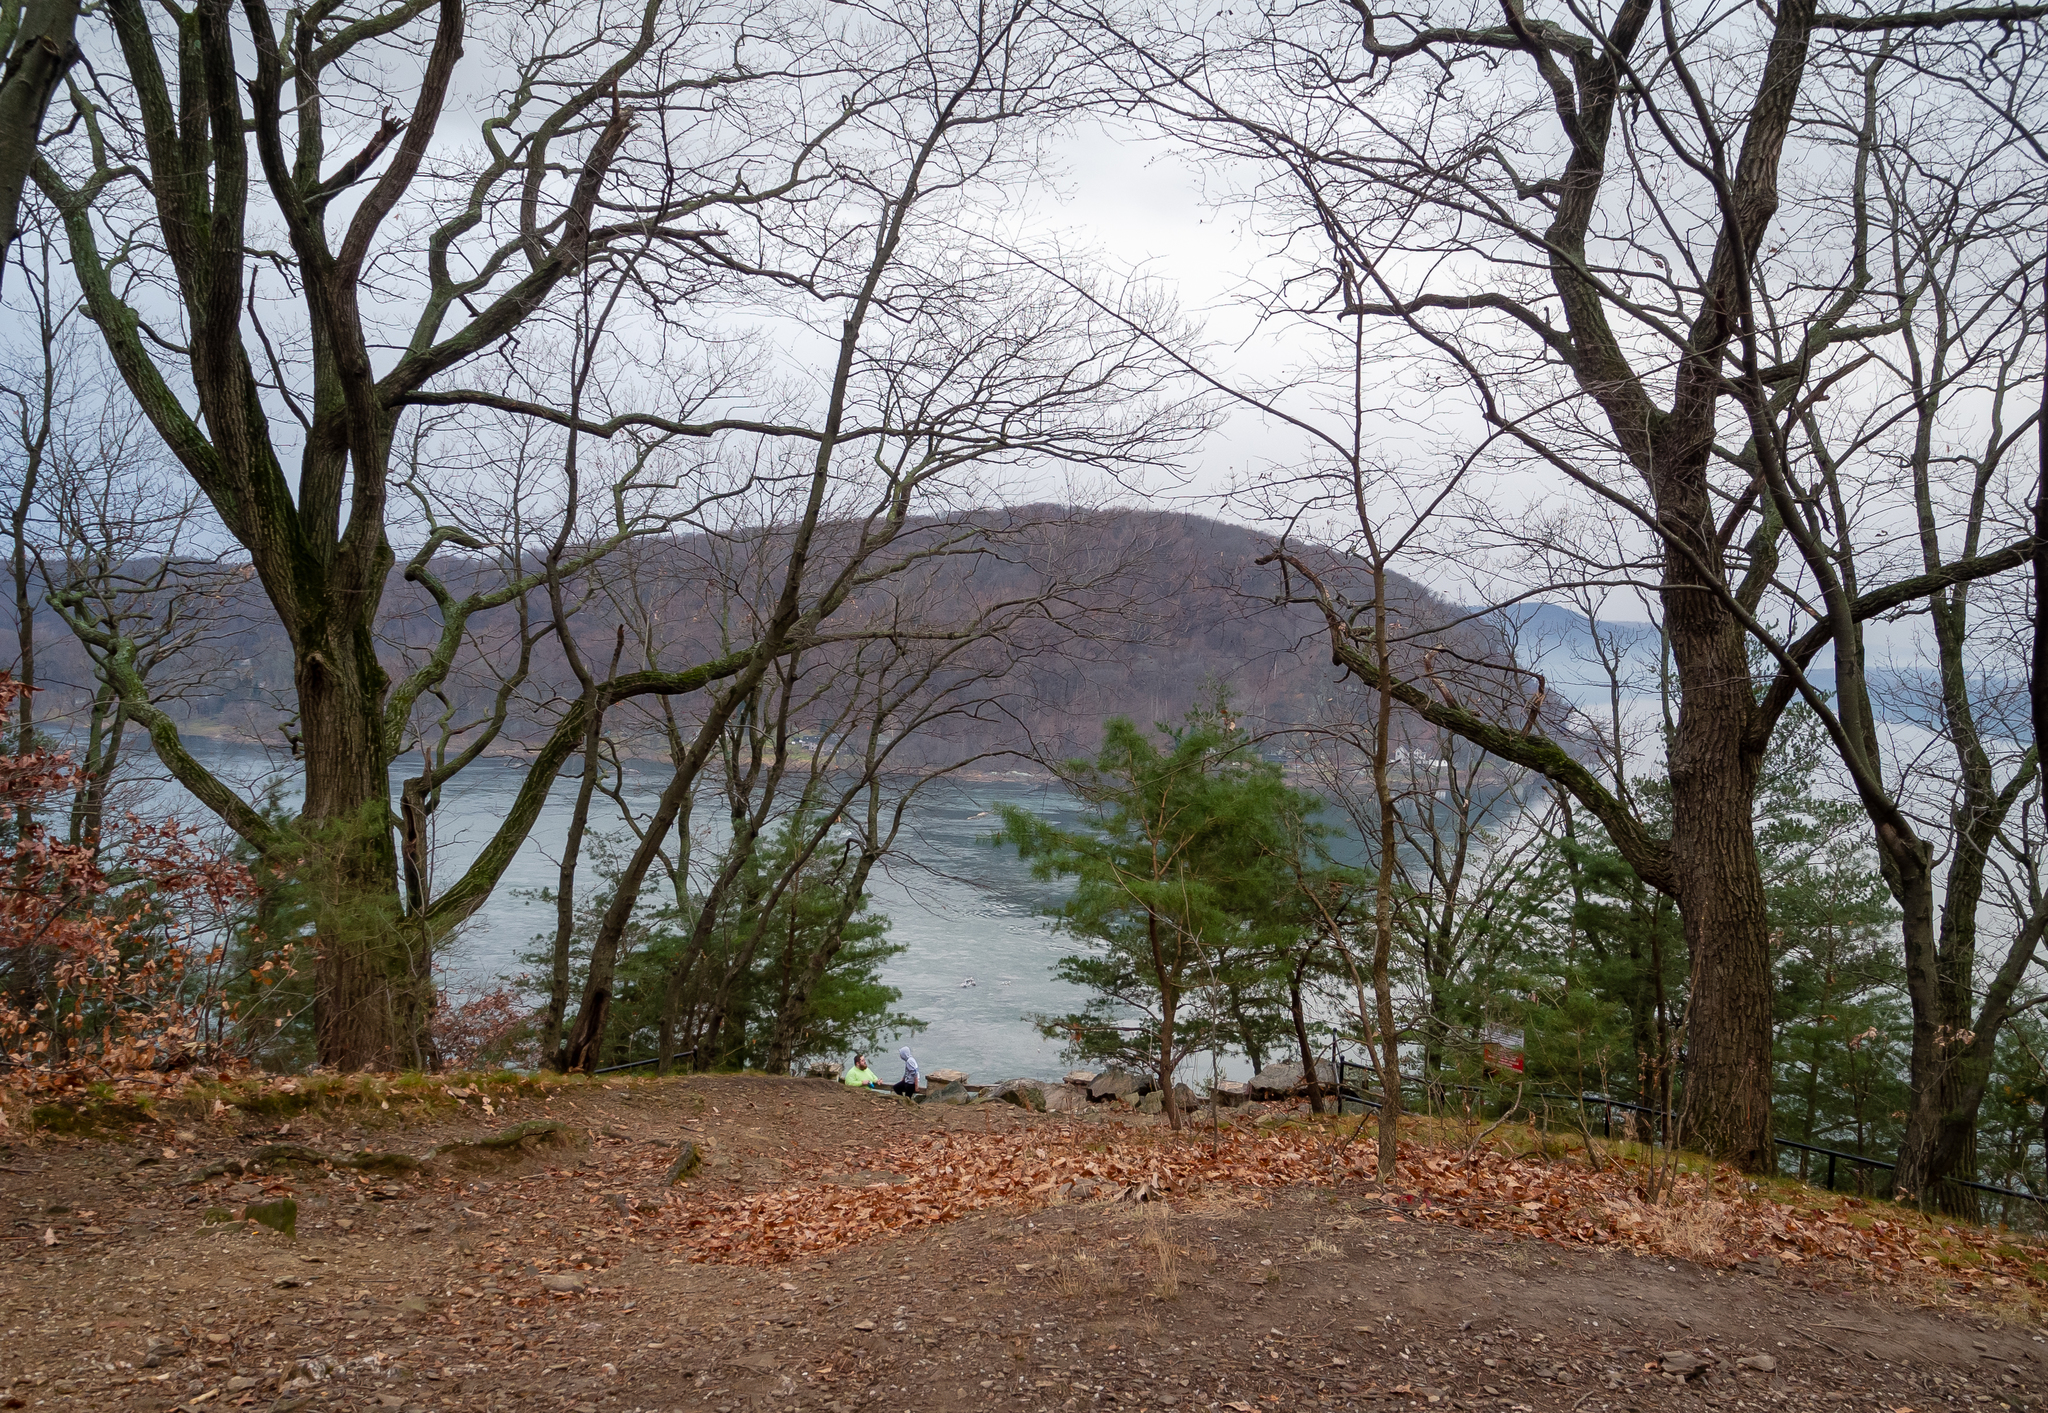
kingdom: Plantae
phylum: Tracheophyta
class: Pinopsida
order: Pinales
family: Pinaceae
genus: Pinus
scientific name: Pinus virginiana
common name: Scrub pine
